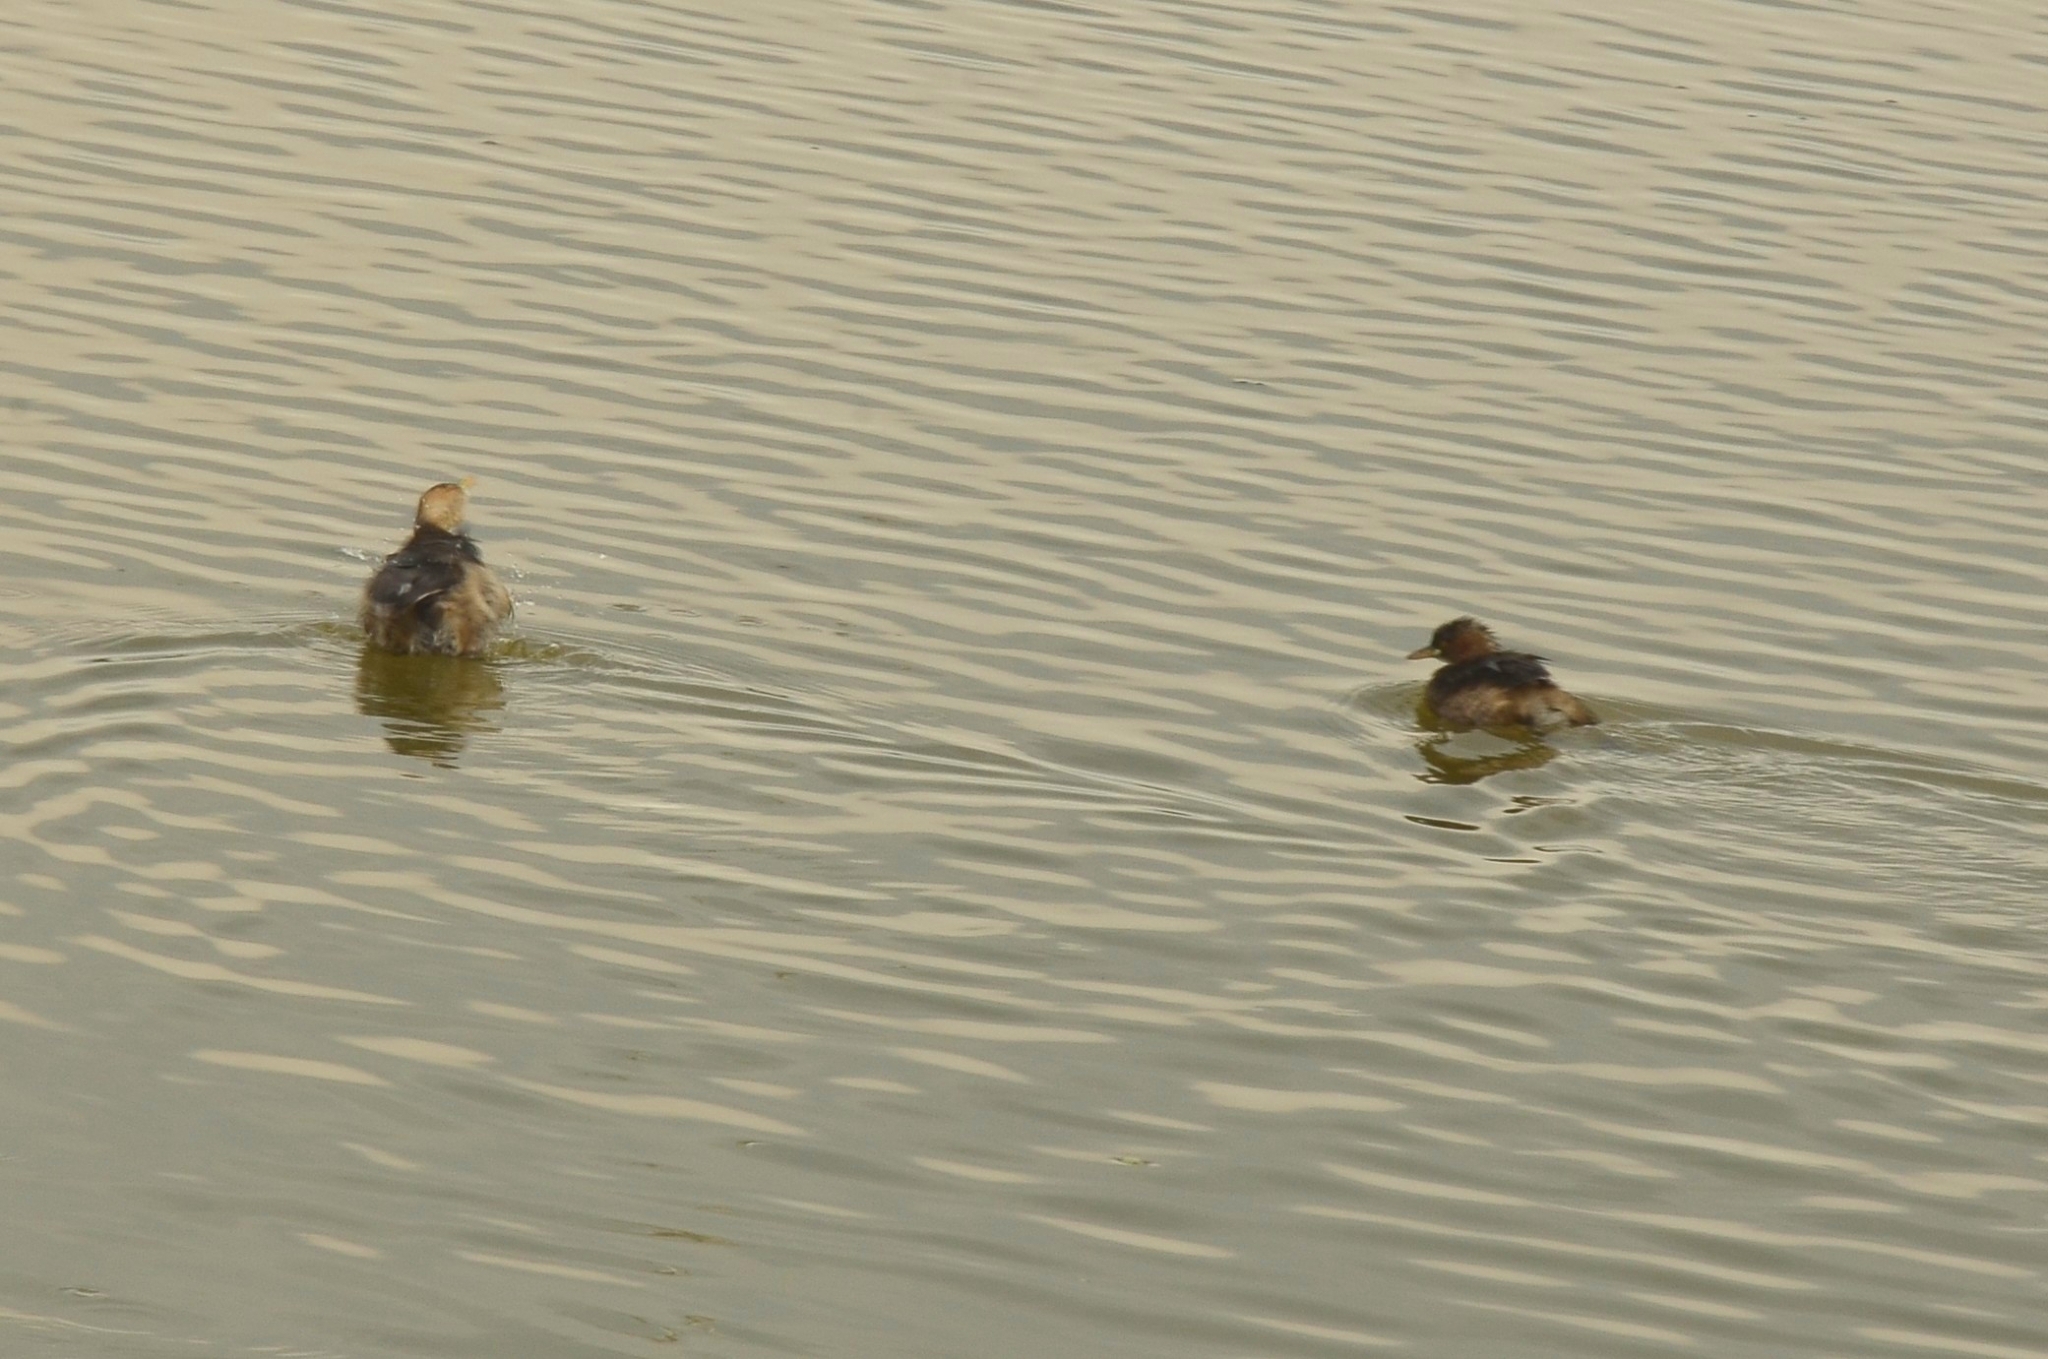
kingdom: Animalia
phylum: Chordata
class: Aves
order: Podicipediformes
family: Podicipedidae
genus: Tachybaptus
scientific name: Tachybaptus ruficollis
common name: Little grebe
